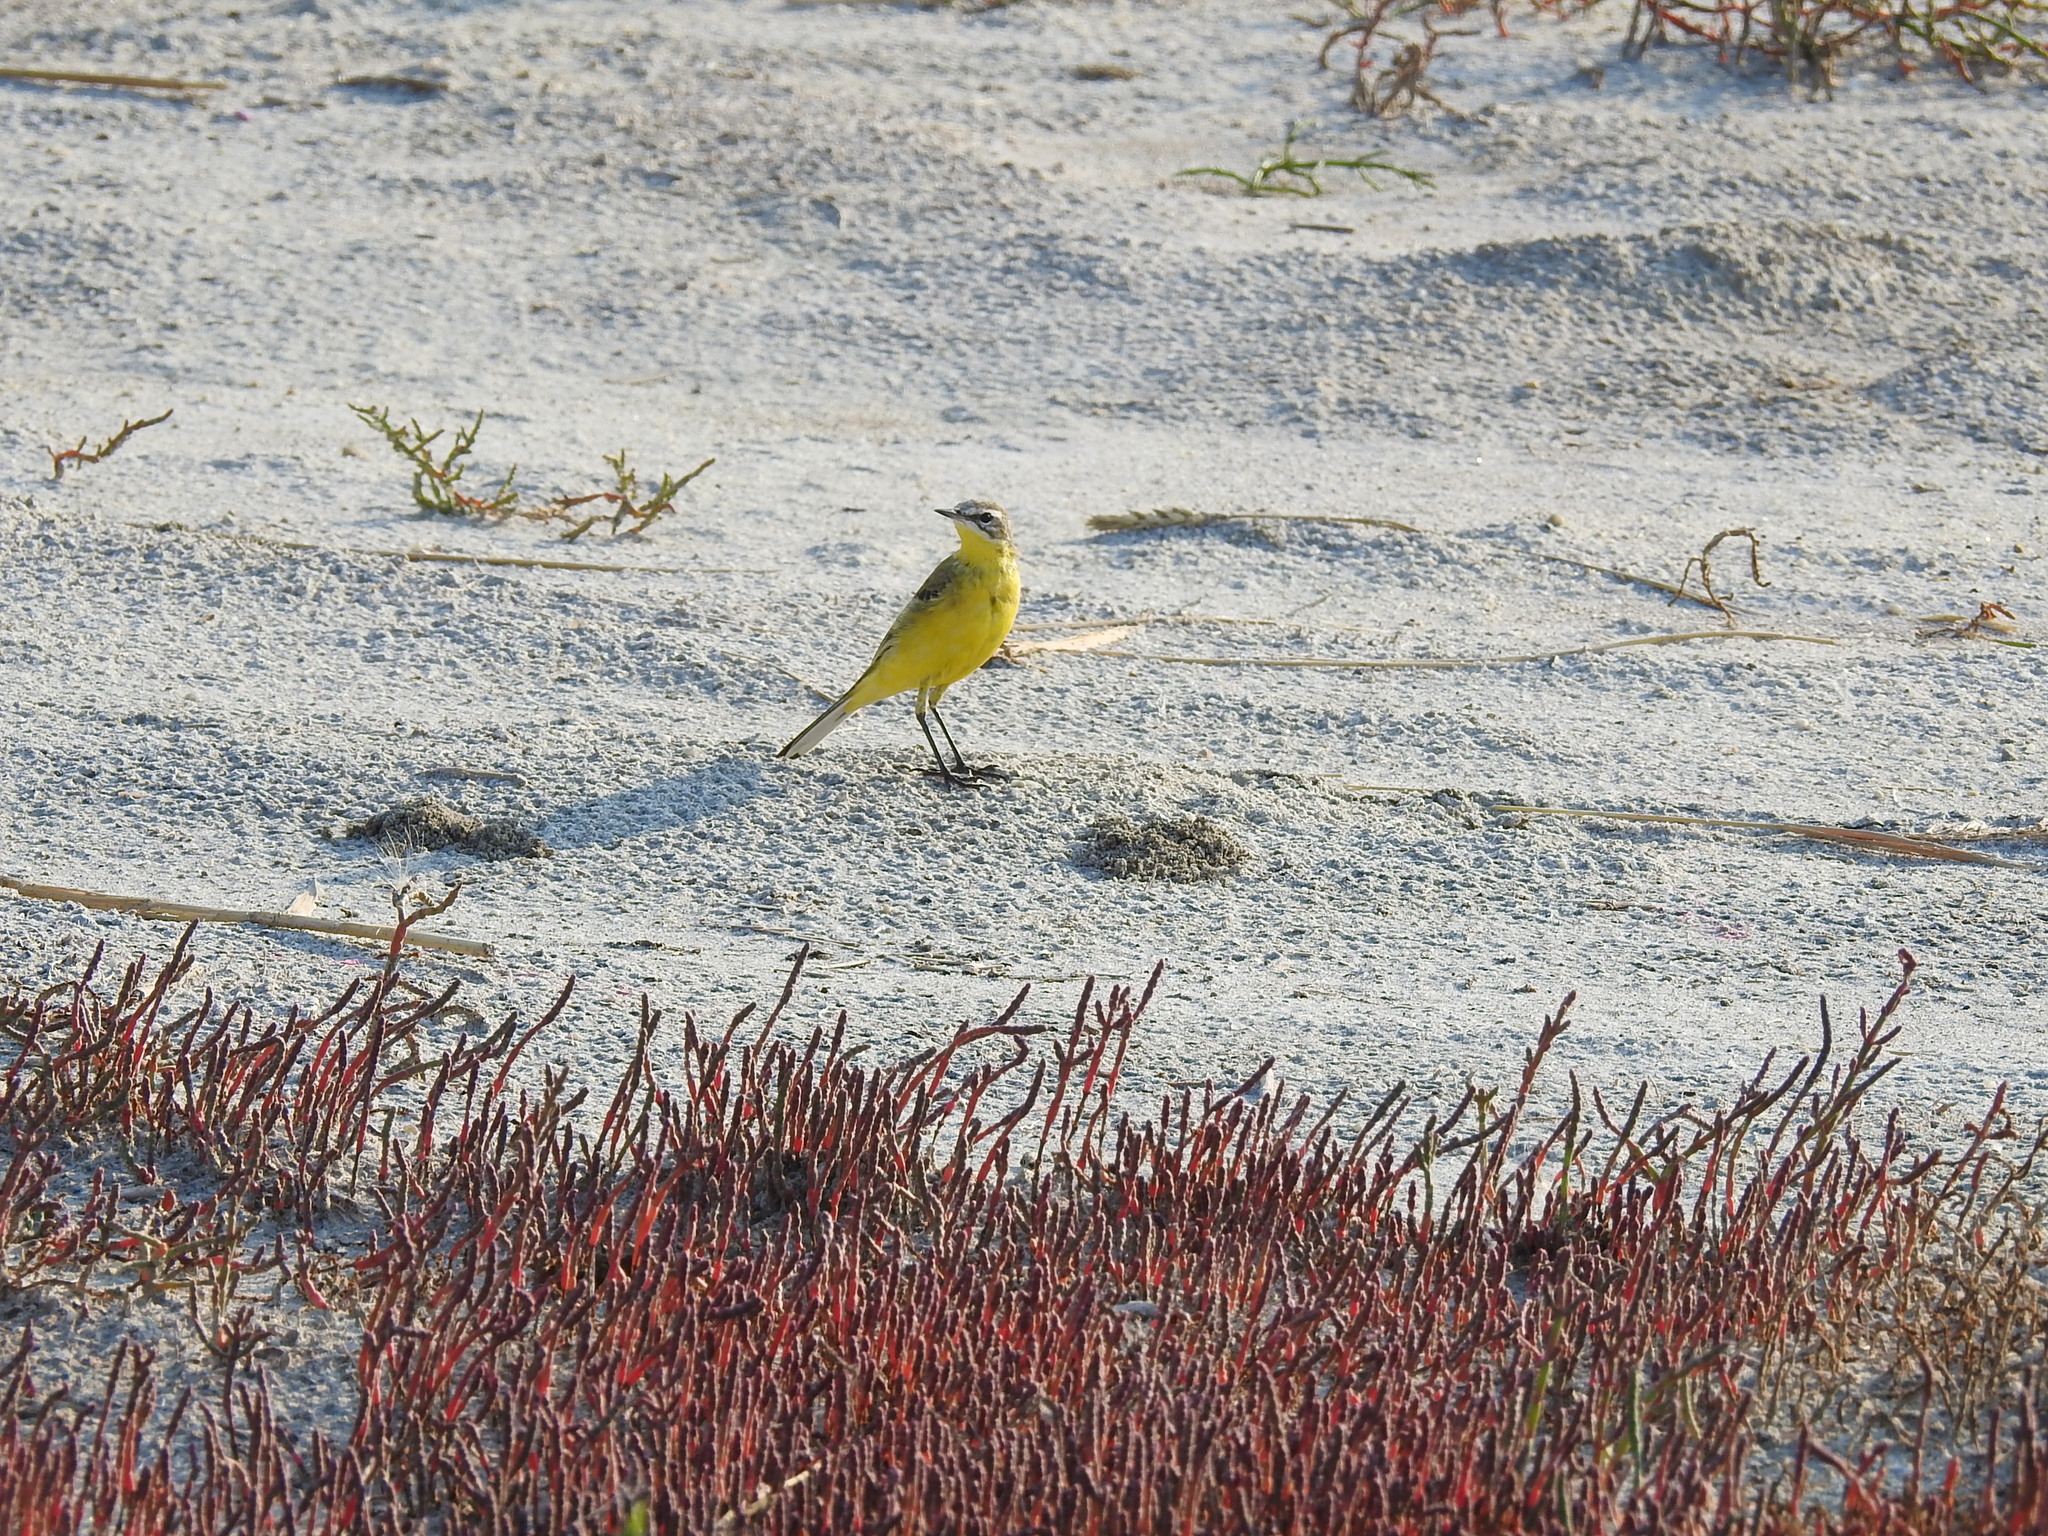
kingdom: Animalia
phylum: Chordata
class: Aves
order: Passeriformes
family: Motacillidae
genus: Motacilla
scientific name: Motacilla flava
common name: Western yellow wagtail
